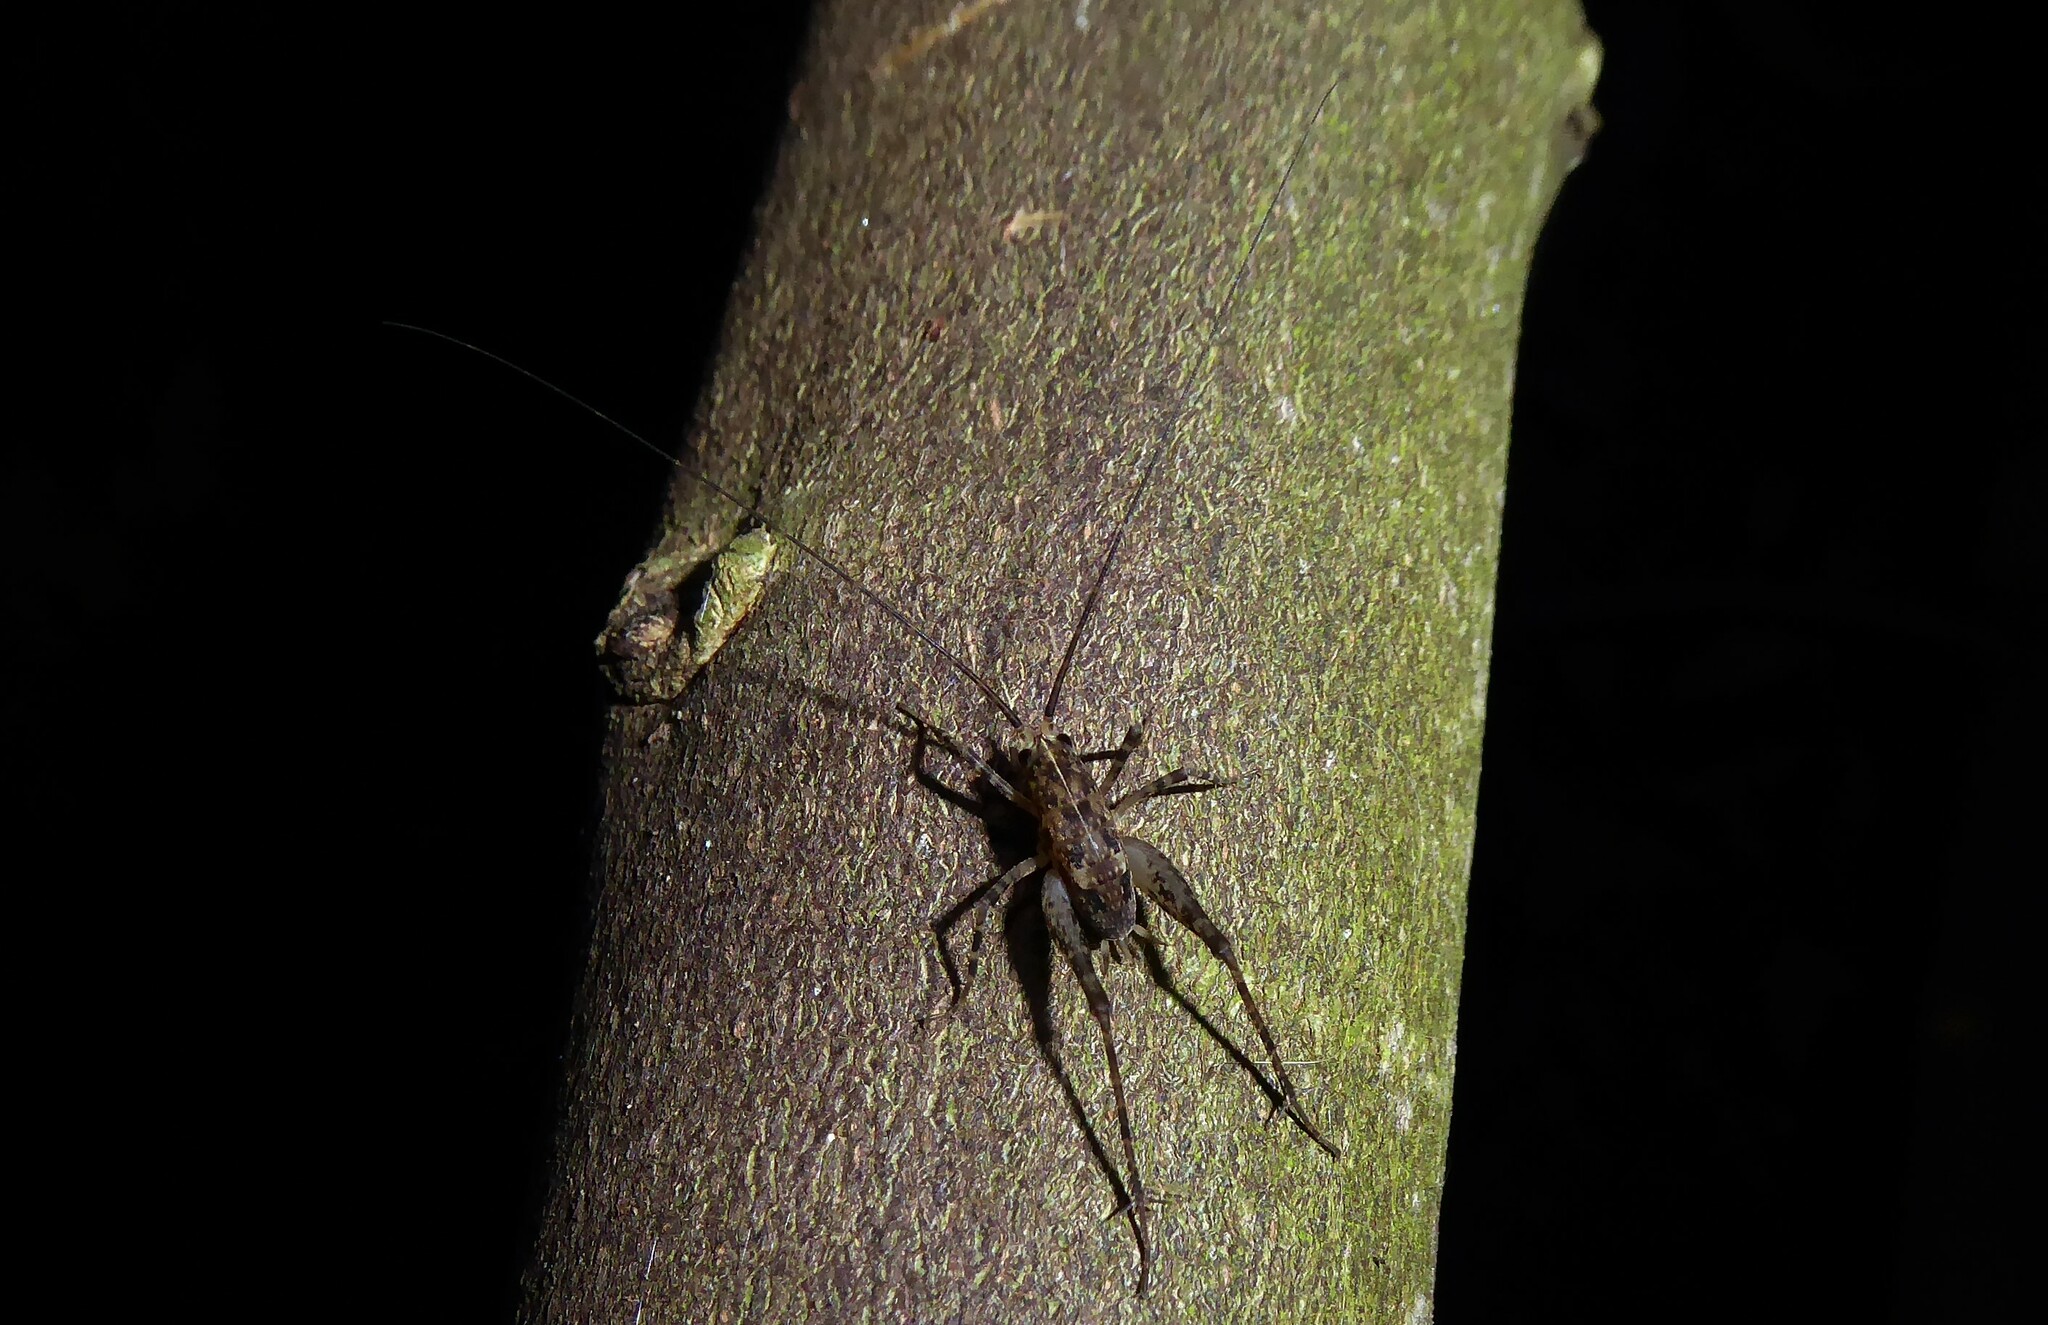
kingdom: Animalia
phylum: Arthropoda
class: Insecta
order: Orthoptera
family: Rhaphidophoridae
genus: Pleioplectron
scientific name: Pleioplectron simplex
